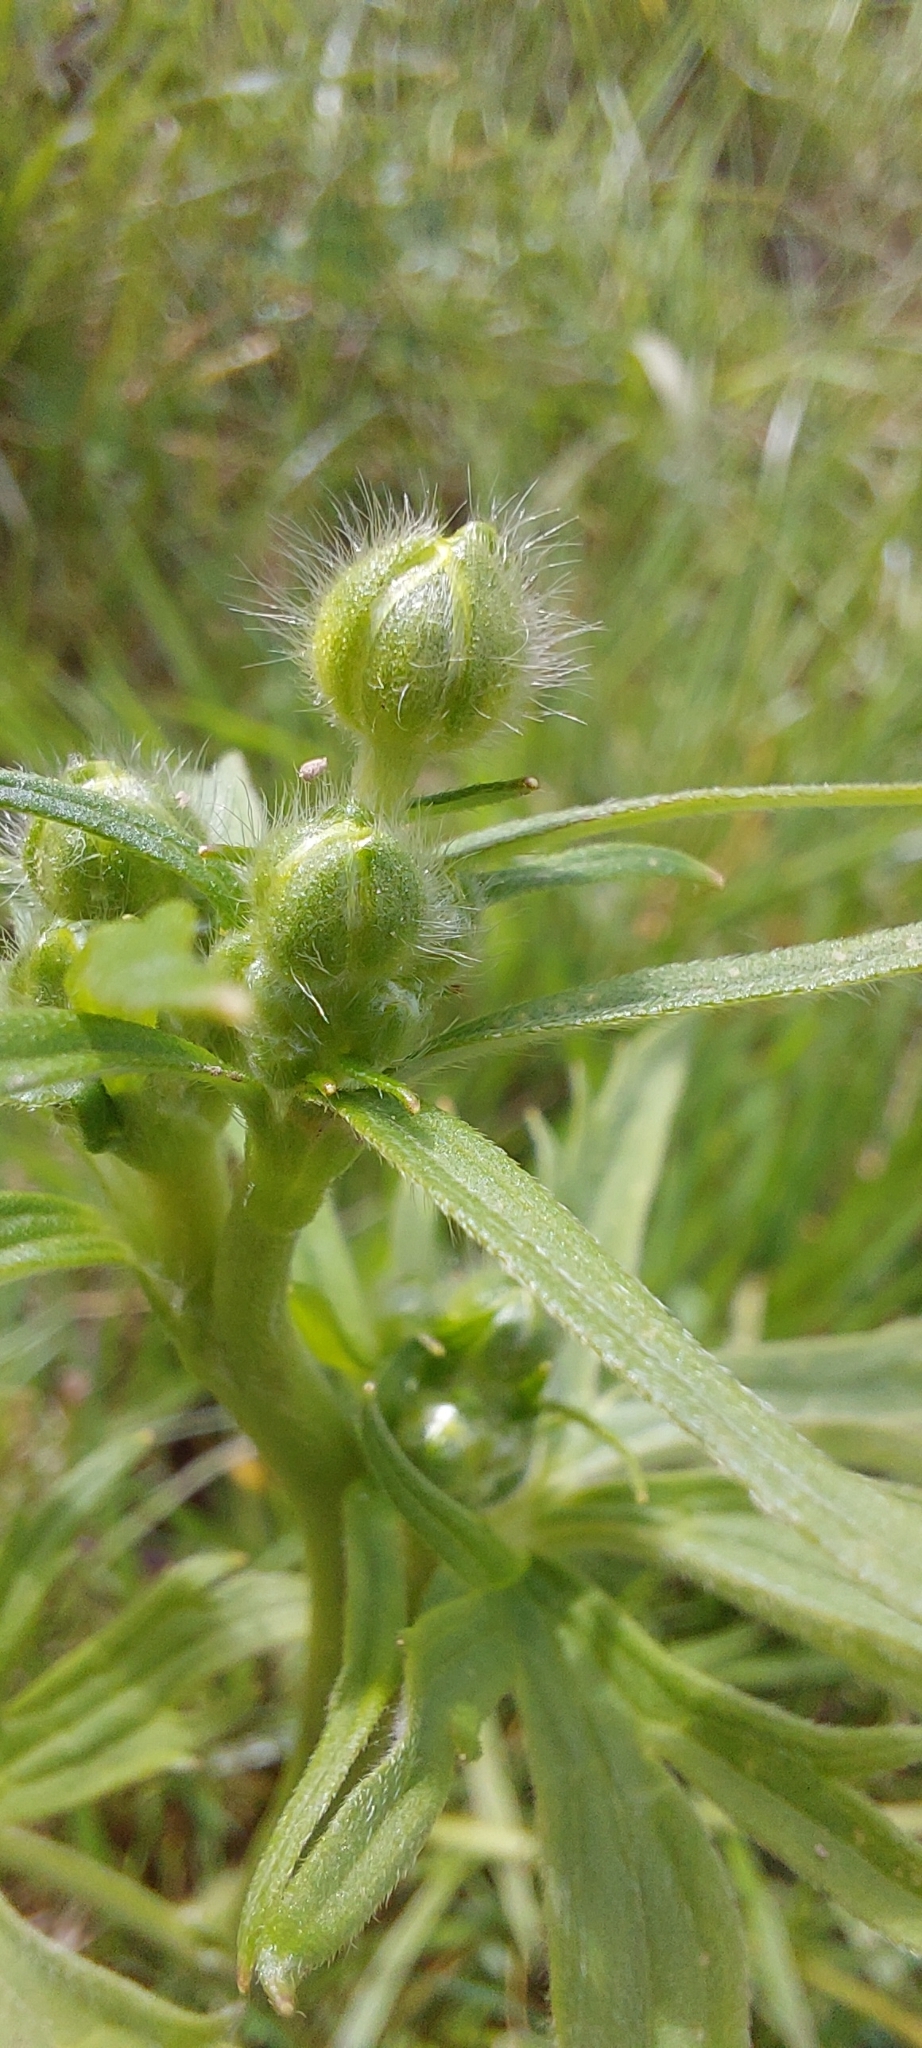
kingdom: Plantae
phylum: Tracheophyta
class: Magnoliopsida
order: Ranunculales
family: Ranunculaceae
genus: Ranunculus
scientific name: Ranunculus acris
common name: Meadow buttercup
